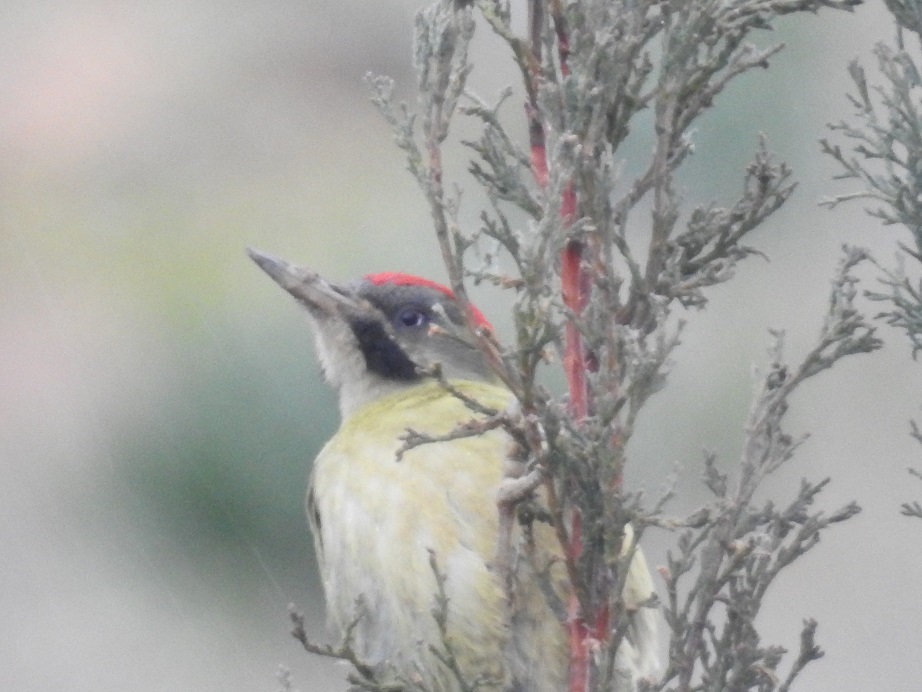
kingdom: Animalia
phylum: Chordata
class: Aves
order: Piciformes
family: Picidae
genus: Picus
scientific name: Picus vaillantii
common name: Levaillant's woodpecker
